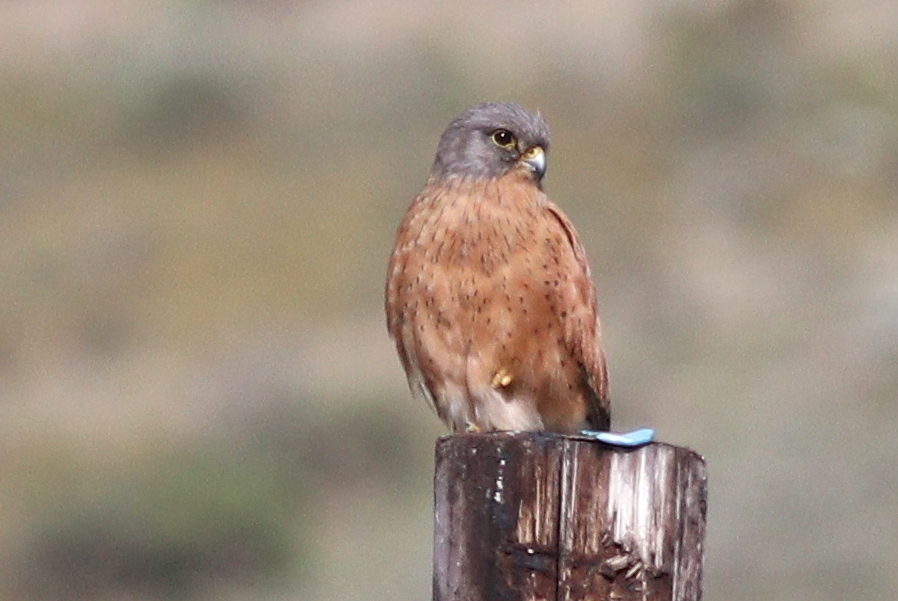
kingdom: Animalia
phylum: Chordata
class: Aves
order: Falconiformes
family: Falconidae
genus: Falco
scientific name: Falco rupicolus
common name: Rock kestrel
